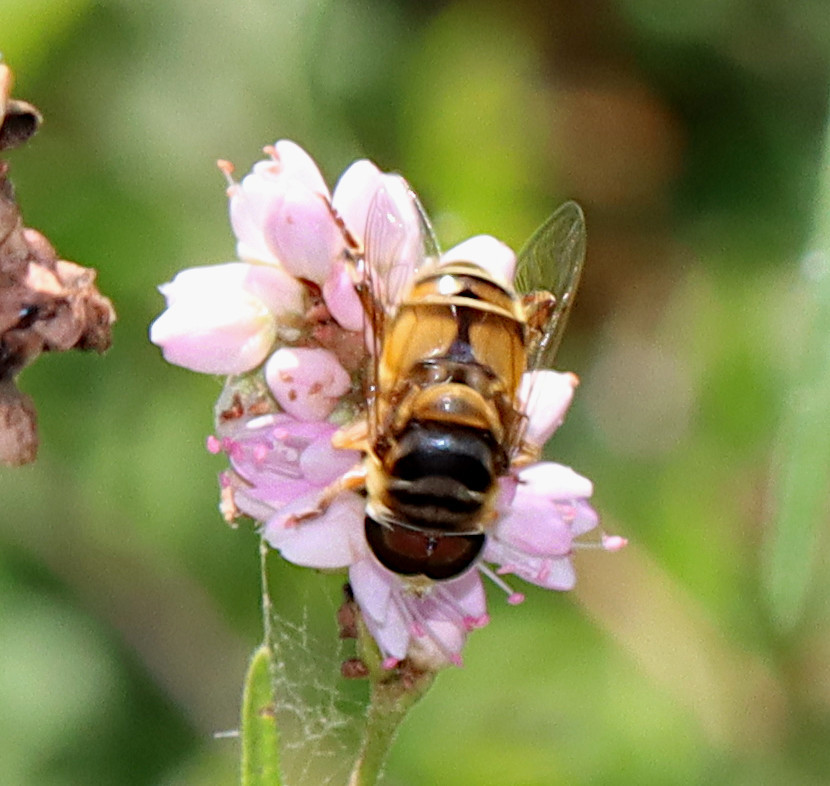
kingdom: Animalia
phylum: Arthropoda
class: Insecta
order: Diptera
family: Syrphidae
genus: Palpada
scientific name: Palpada vinetorum
